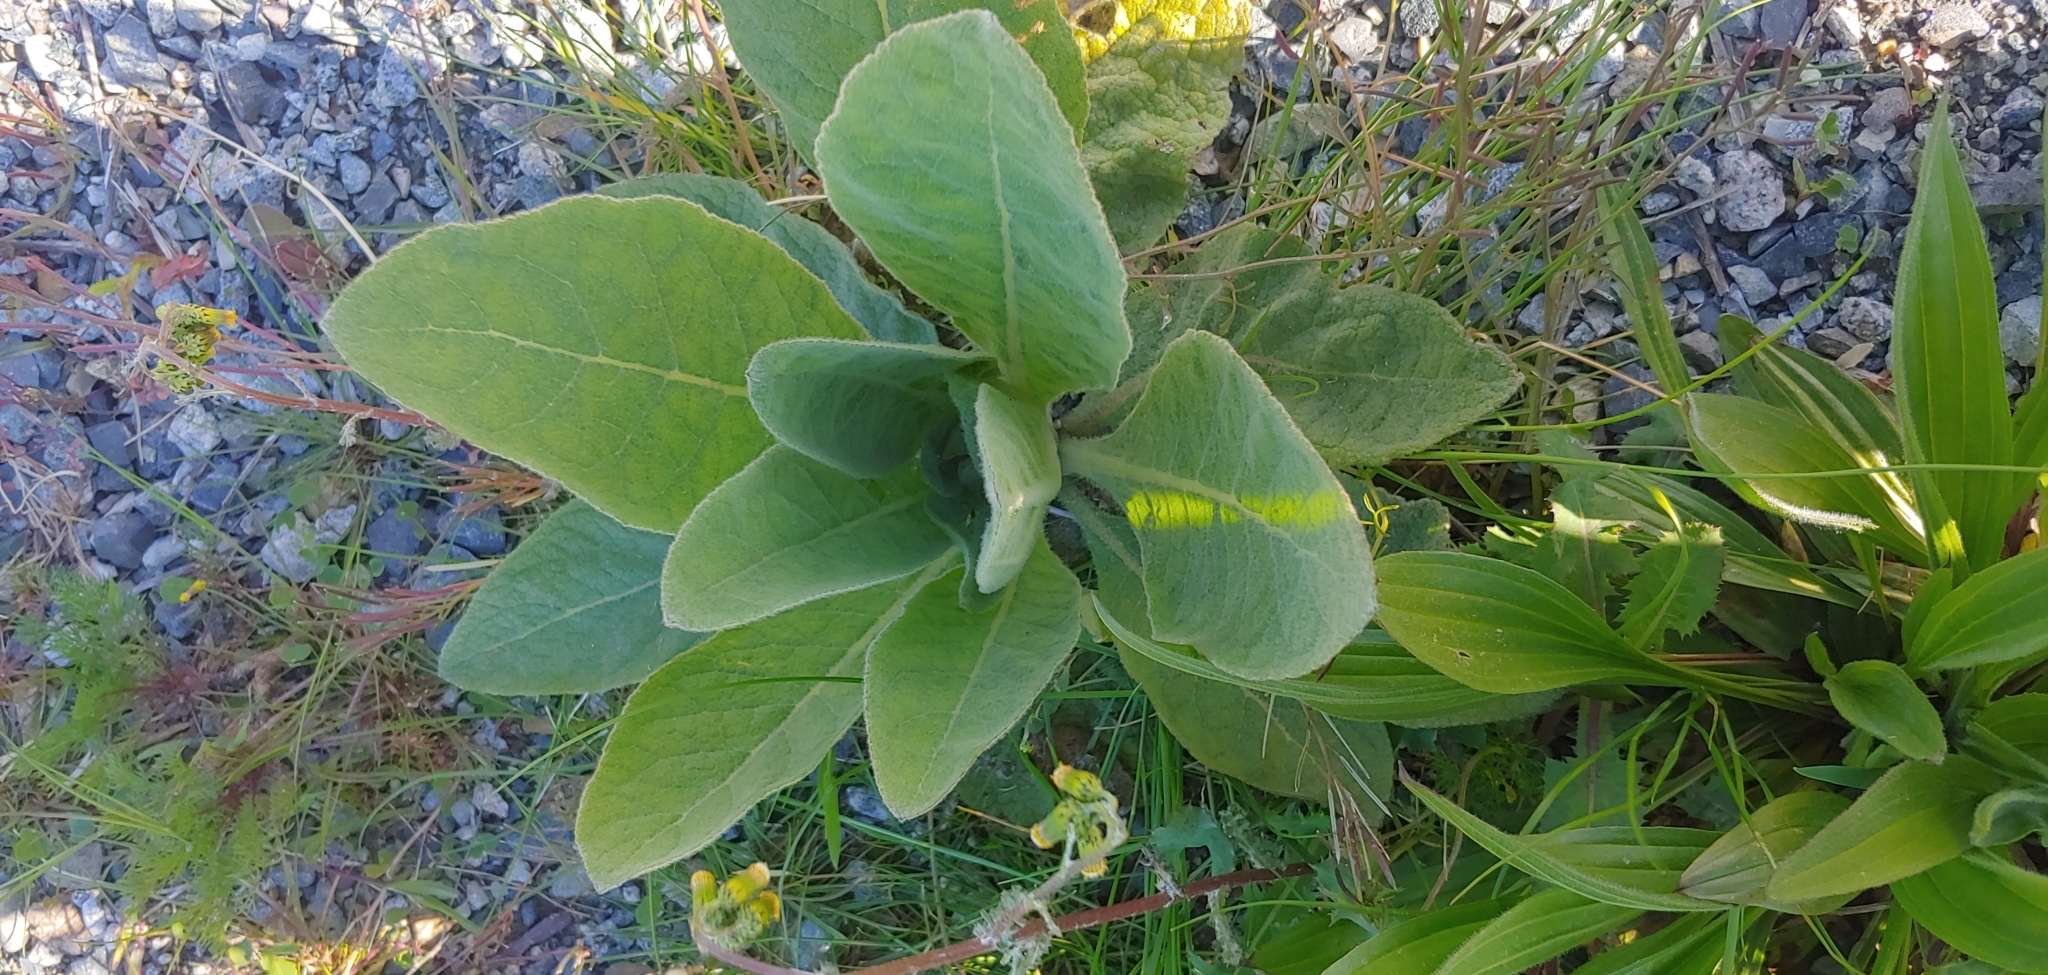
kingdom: Plantae
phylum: Tracheophyta
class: Magnoliopsida
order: Lamiales
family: Scrophulariaceae
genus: Verbascum
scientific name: Verbascum thapsus
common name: Common mullein
